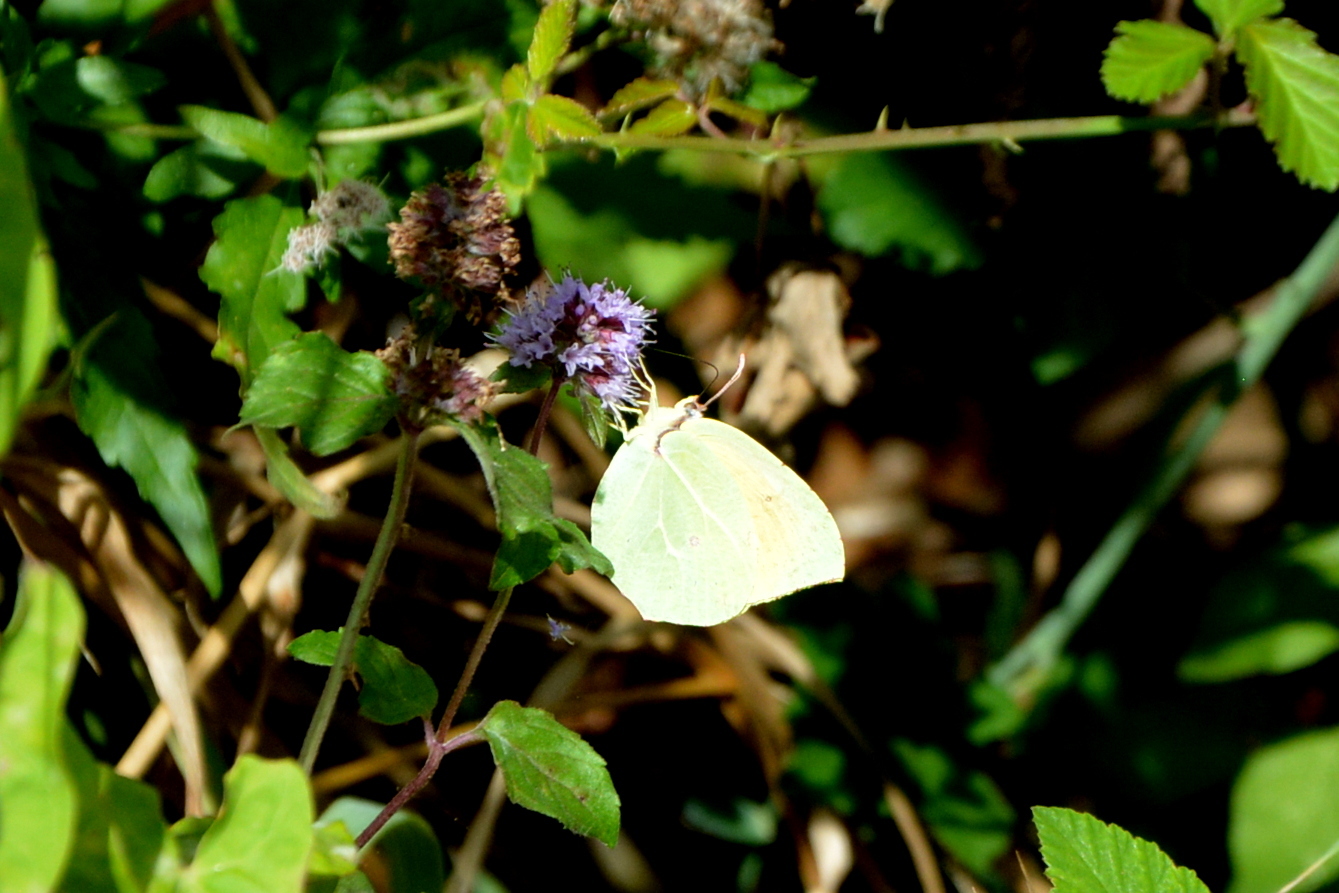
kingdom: Animalia
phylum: Arthropoda
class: Insecta
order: Lepidoptera
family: Pieridae
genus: Gonepteryx
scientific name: Gonepteryx cleopatra
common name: Cleopatra
